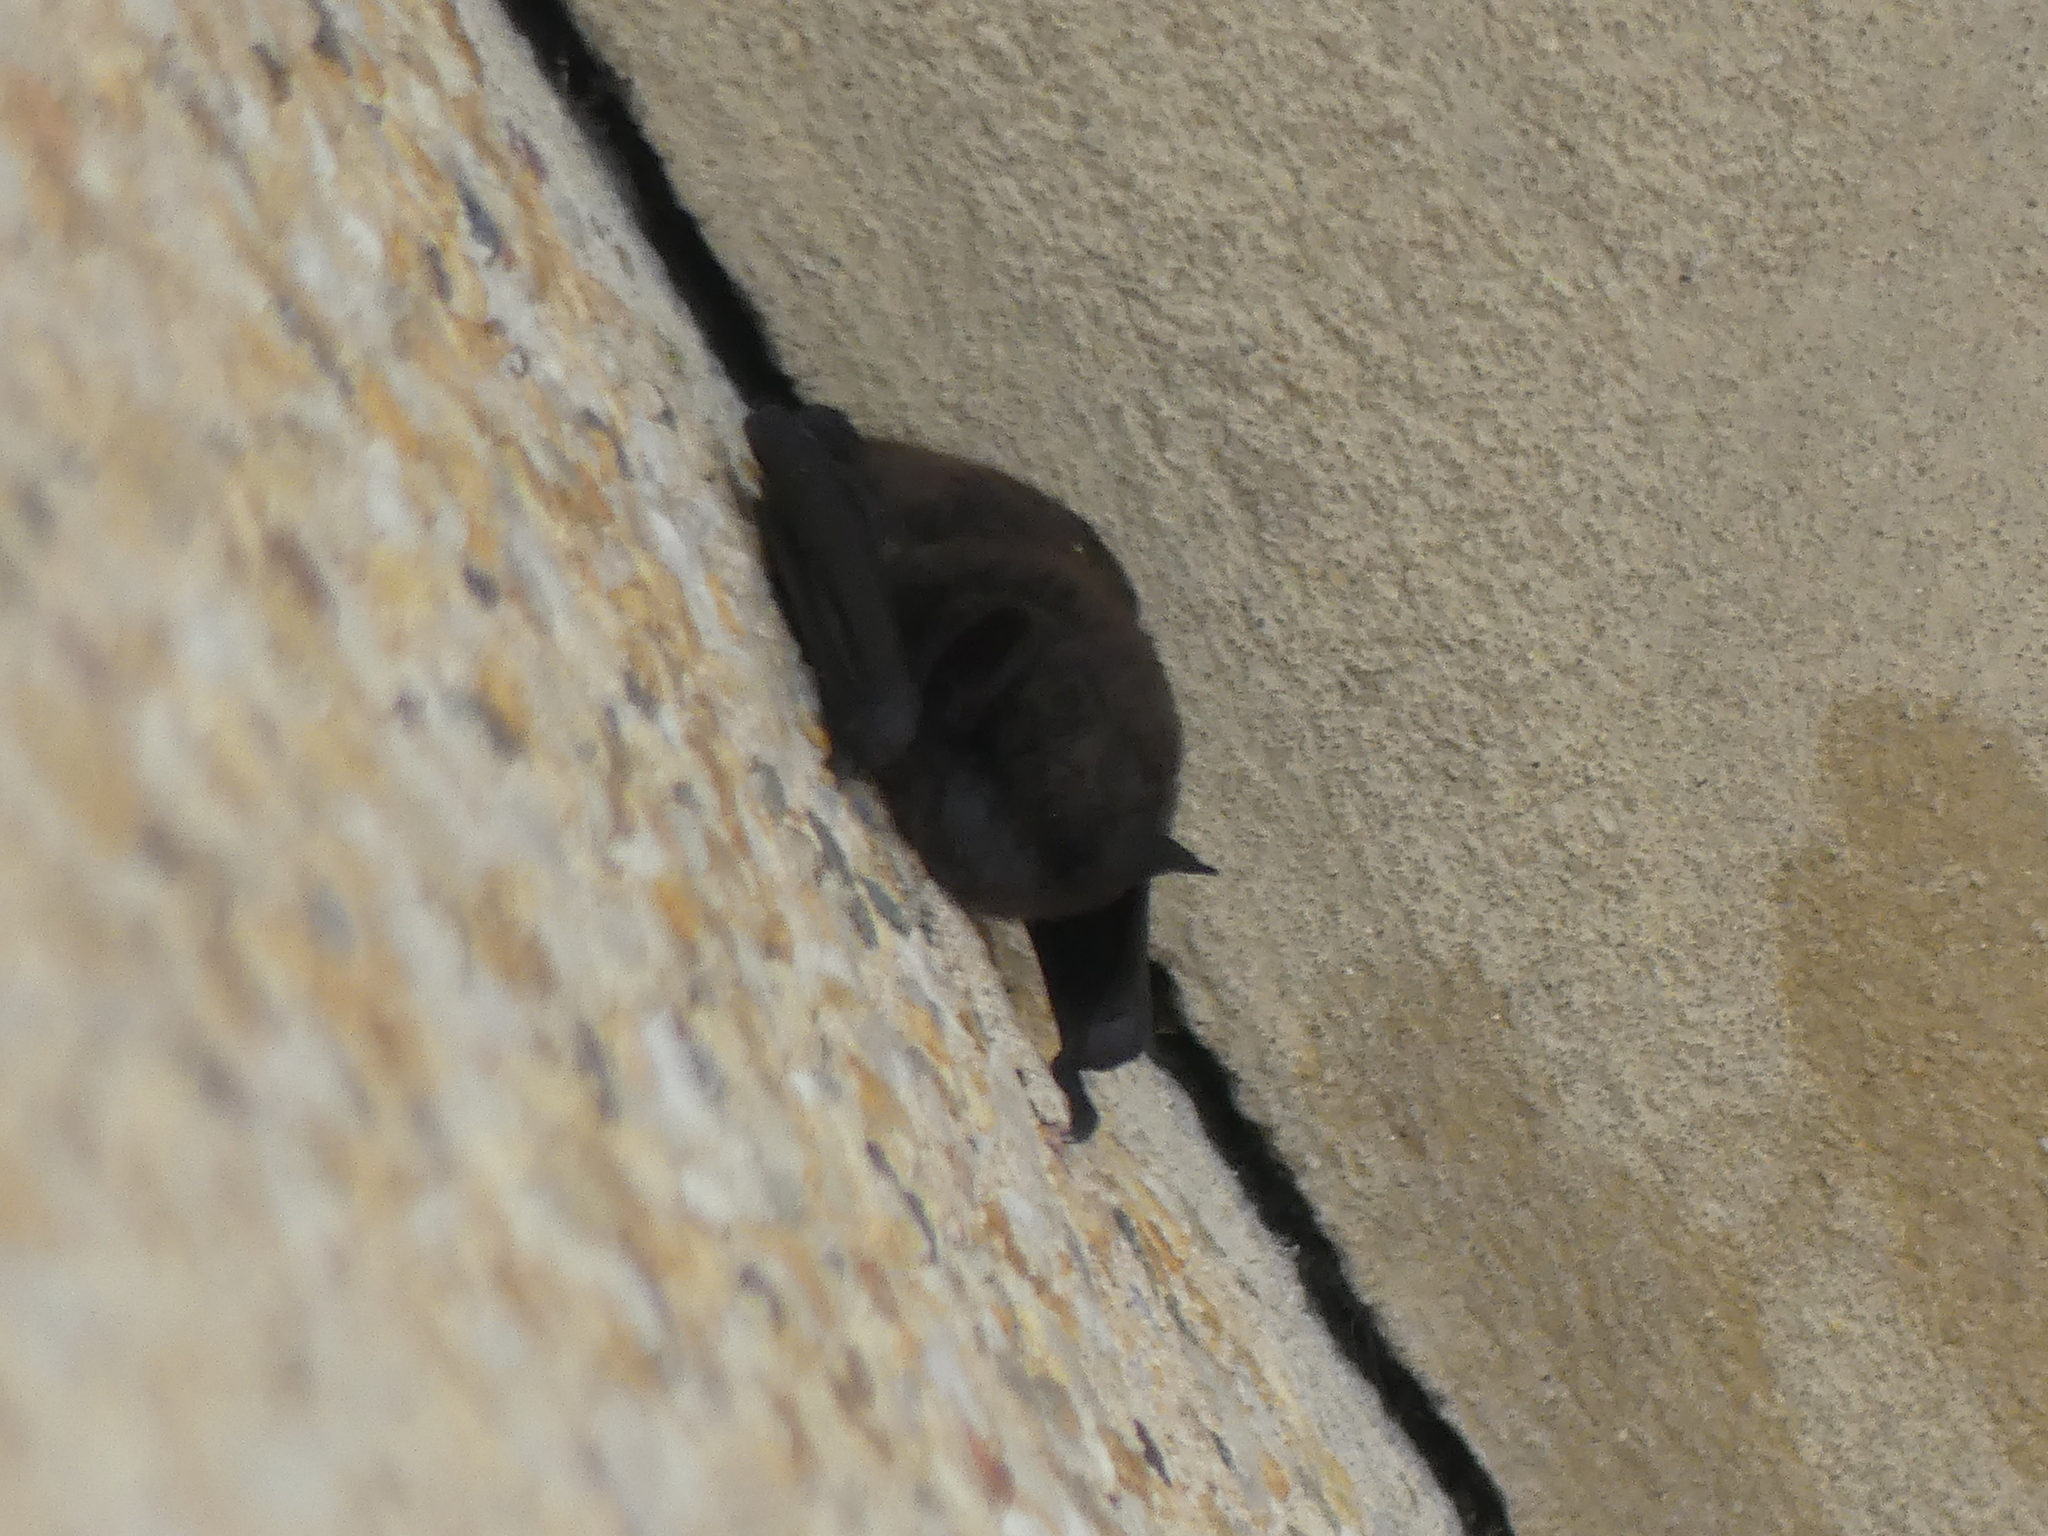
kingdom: Animalia
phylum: Chordata
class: Mammalia
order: Chiroptera
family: Vespertilionidae
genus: Nycticeius
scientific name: Nycticeius humeralis
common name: Evening bat
